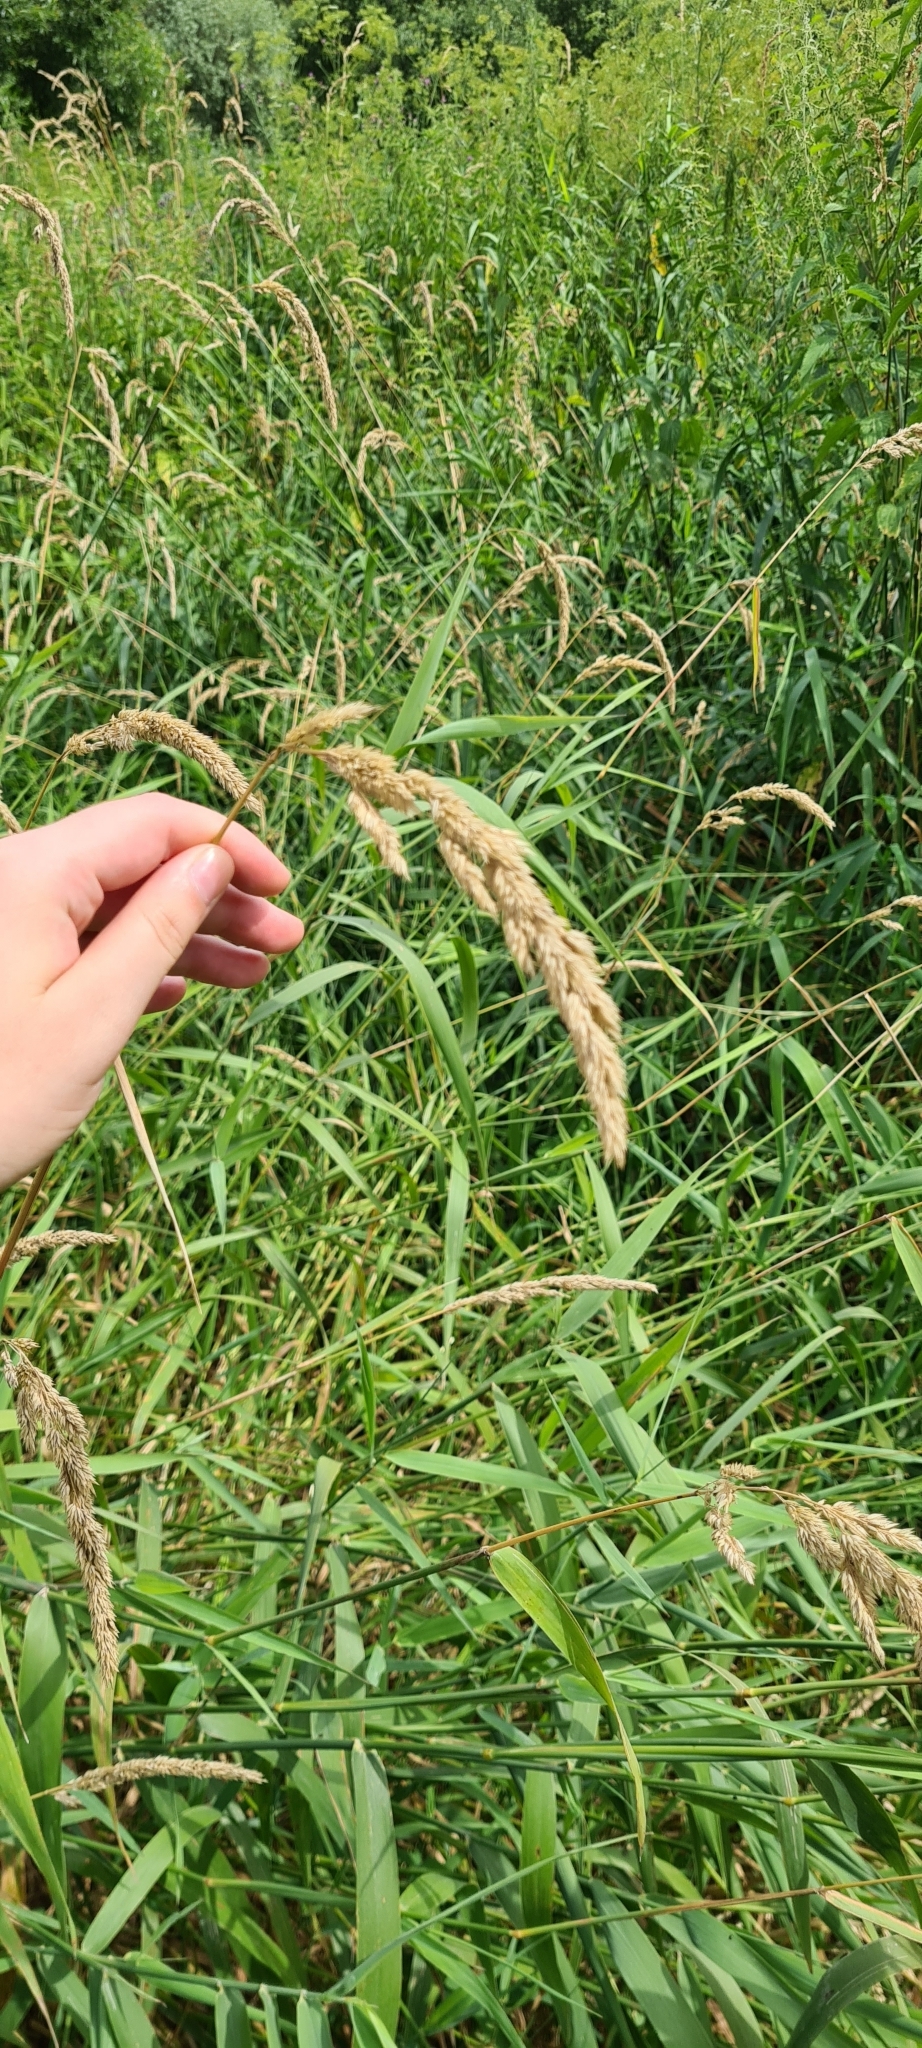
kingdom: Plantae
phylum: Tracheophyta
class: Liliopsida
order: Poales
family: Poaceae
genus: Phalaris
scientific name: Phalaris arundinacea
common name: Reed canary-grass
